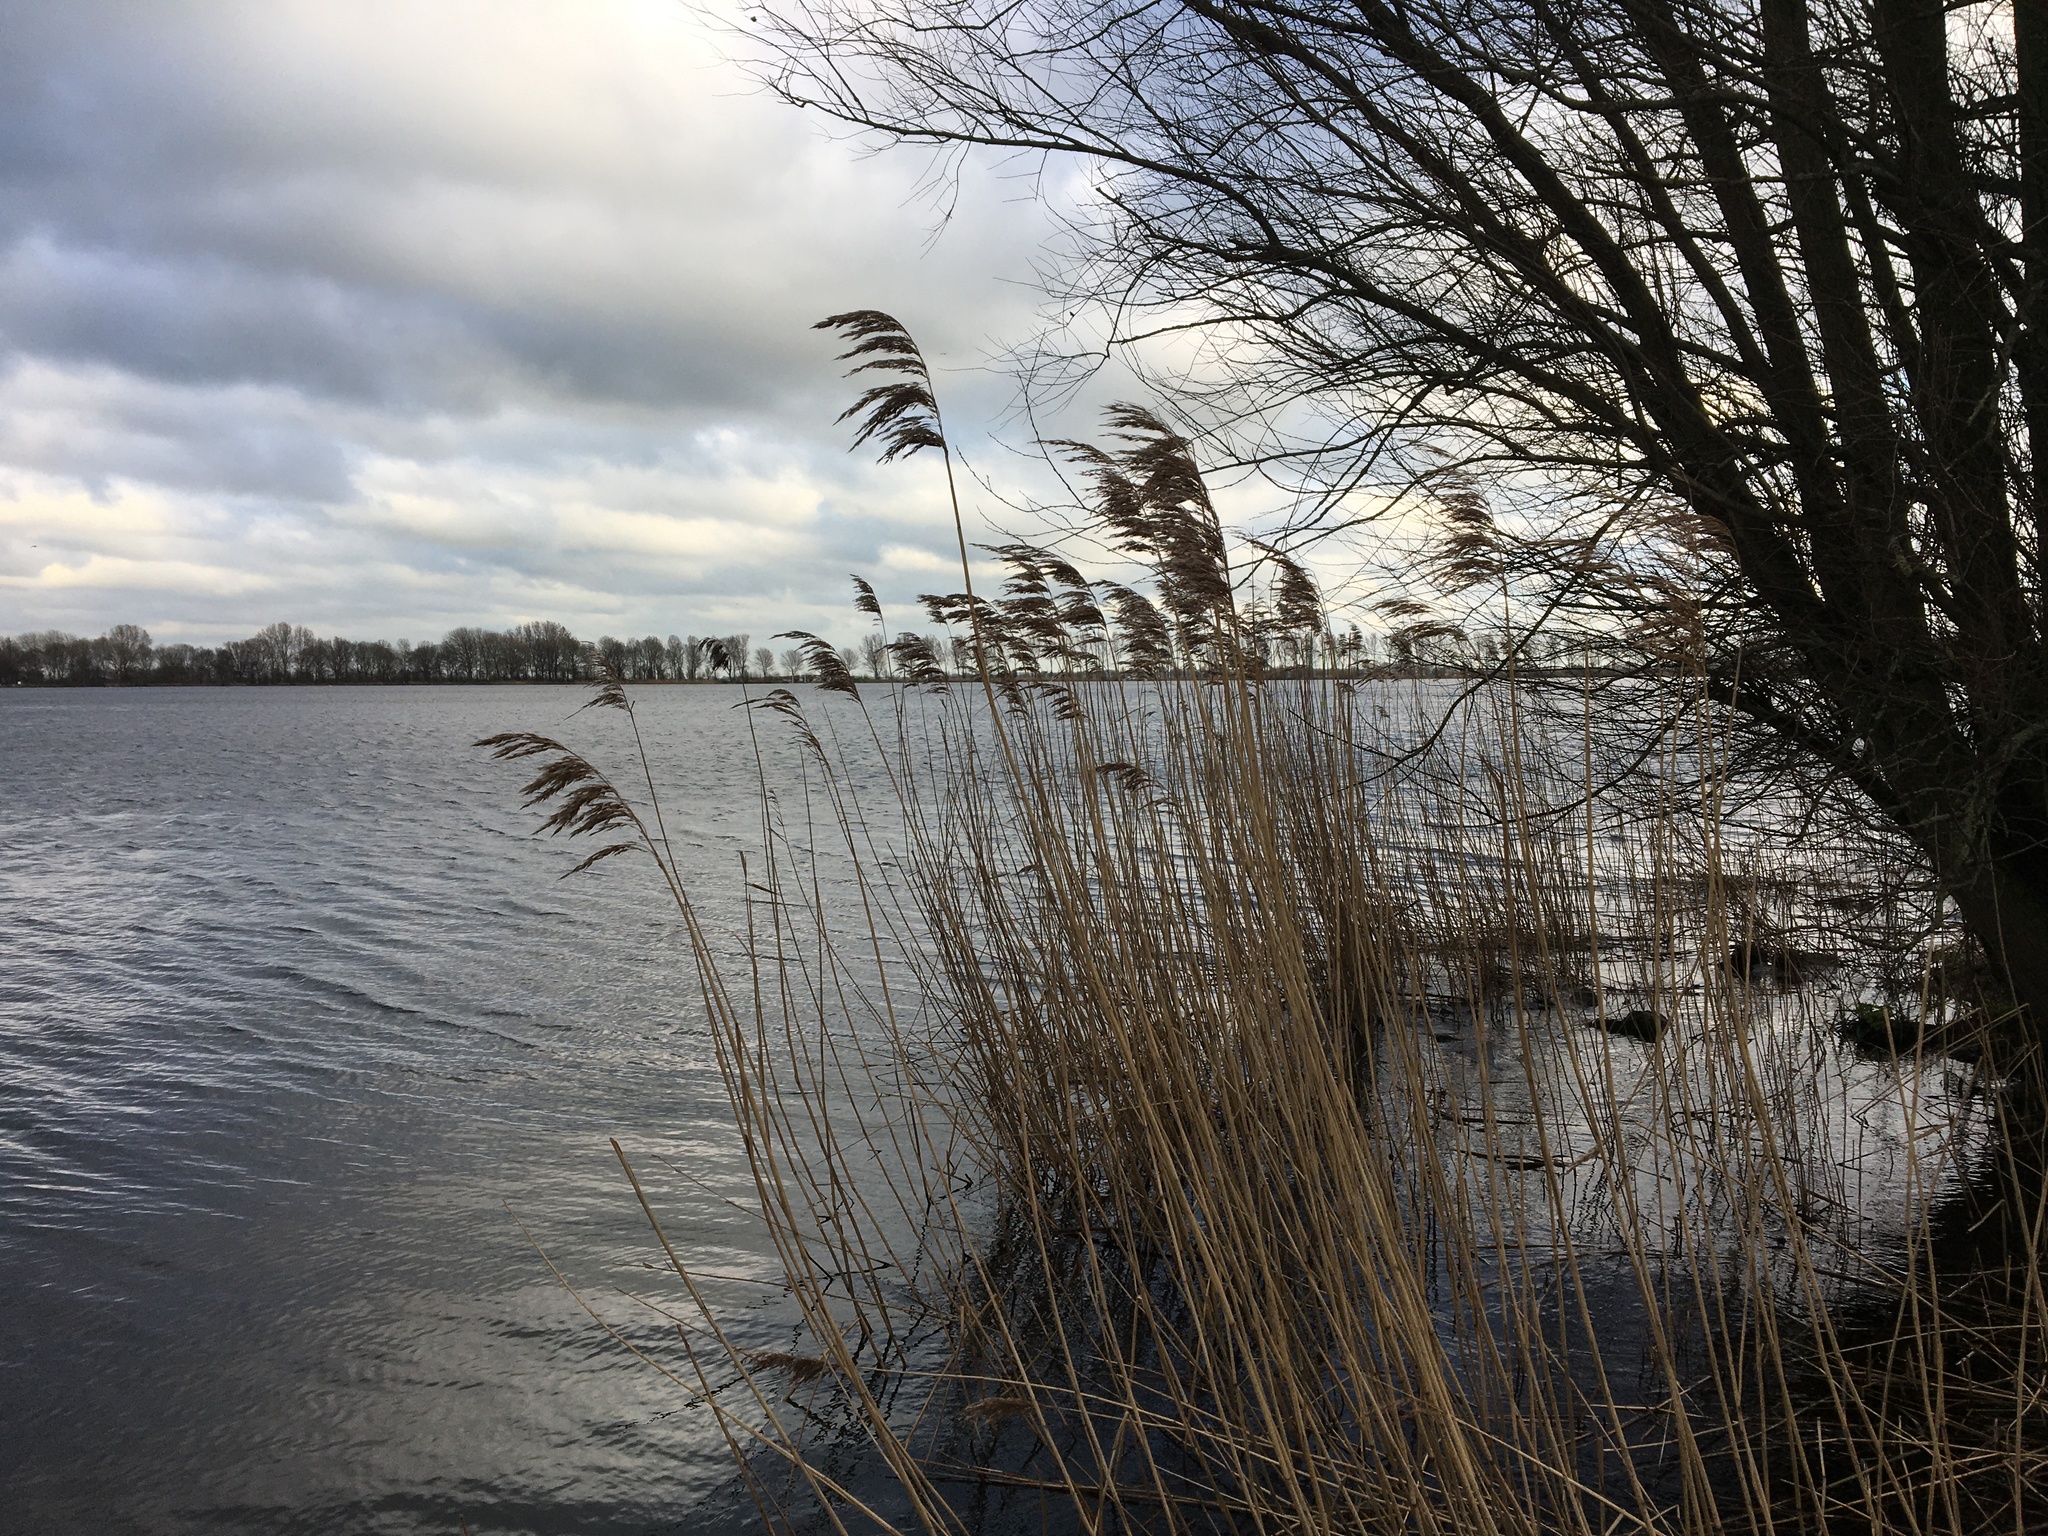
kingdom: Plantae
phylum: Tracheophyta
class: Liliopsida
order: Poales
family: Poaceae
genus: Phragmites
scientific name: Phragmites australis
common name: Common reed
